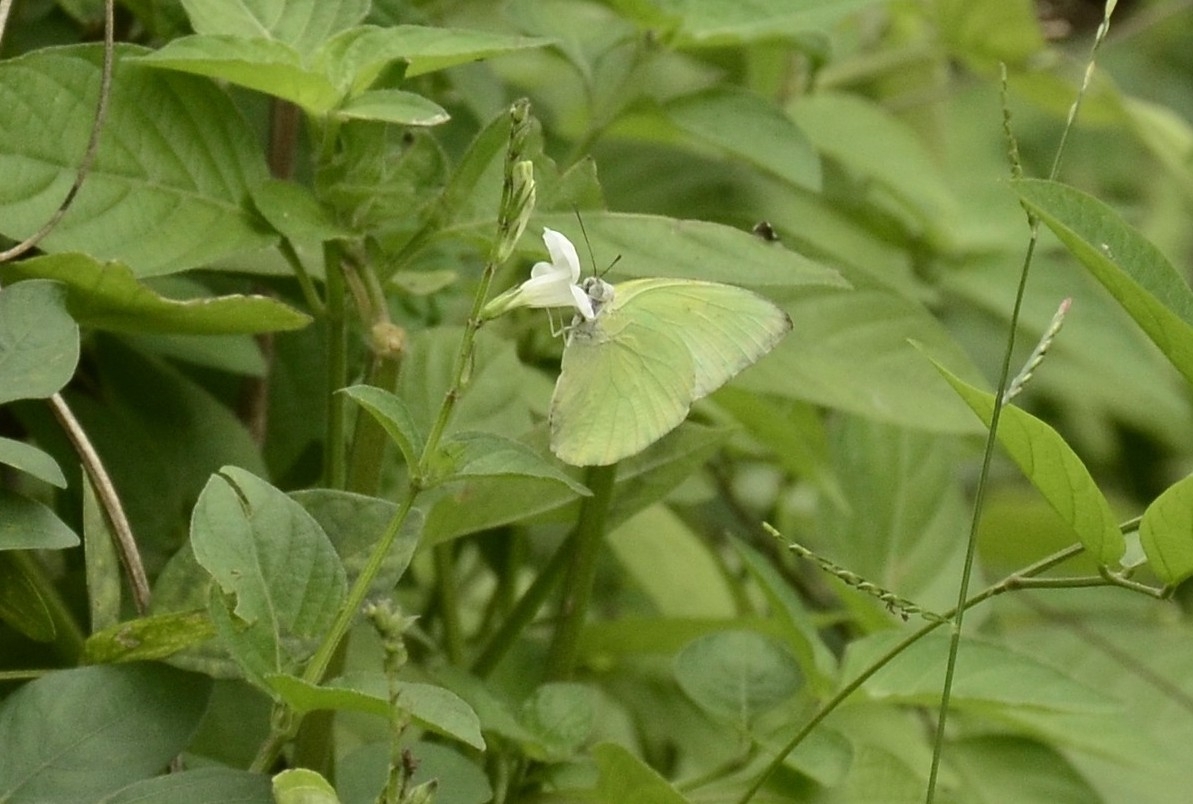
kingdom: Animalia
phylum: Arthropoda
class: Insecta
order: Lepidoptera
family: Pieridae
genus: Catopsilia
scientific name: Catopsilia pomona
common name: Common emigrant
